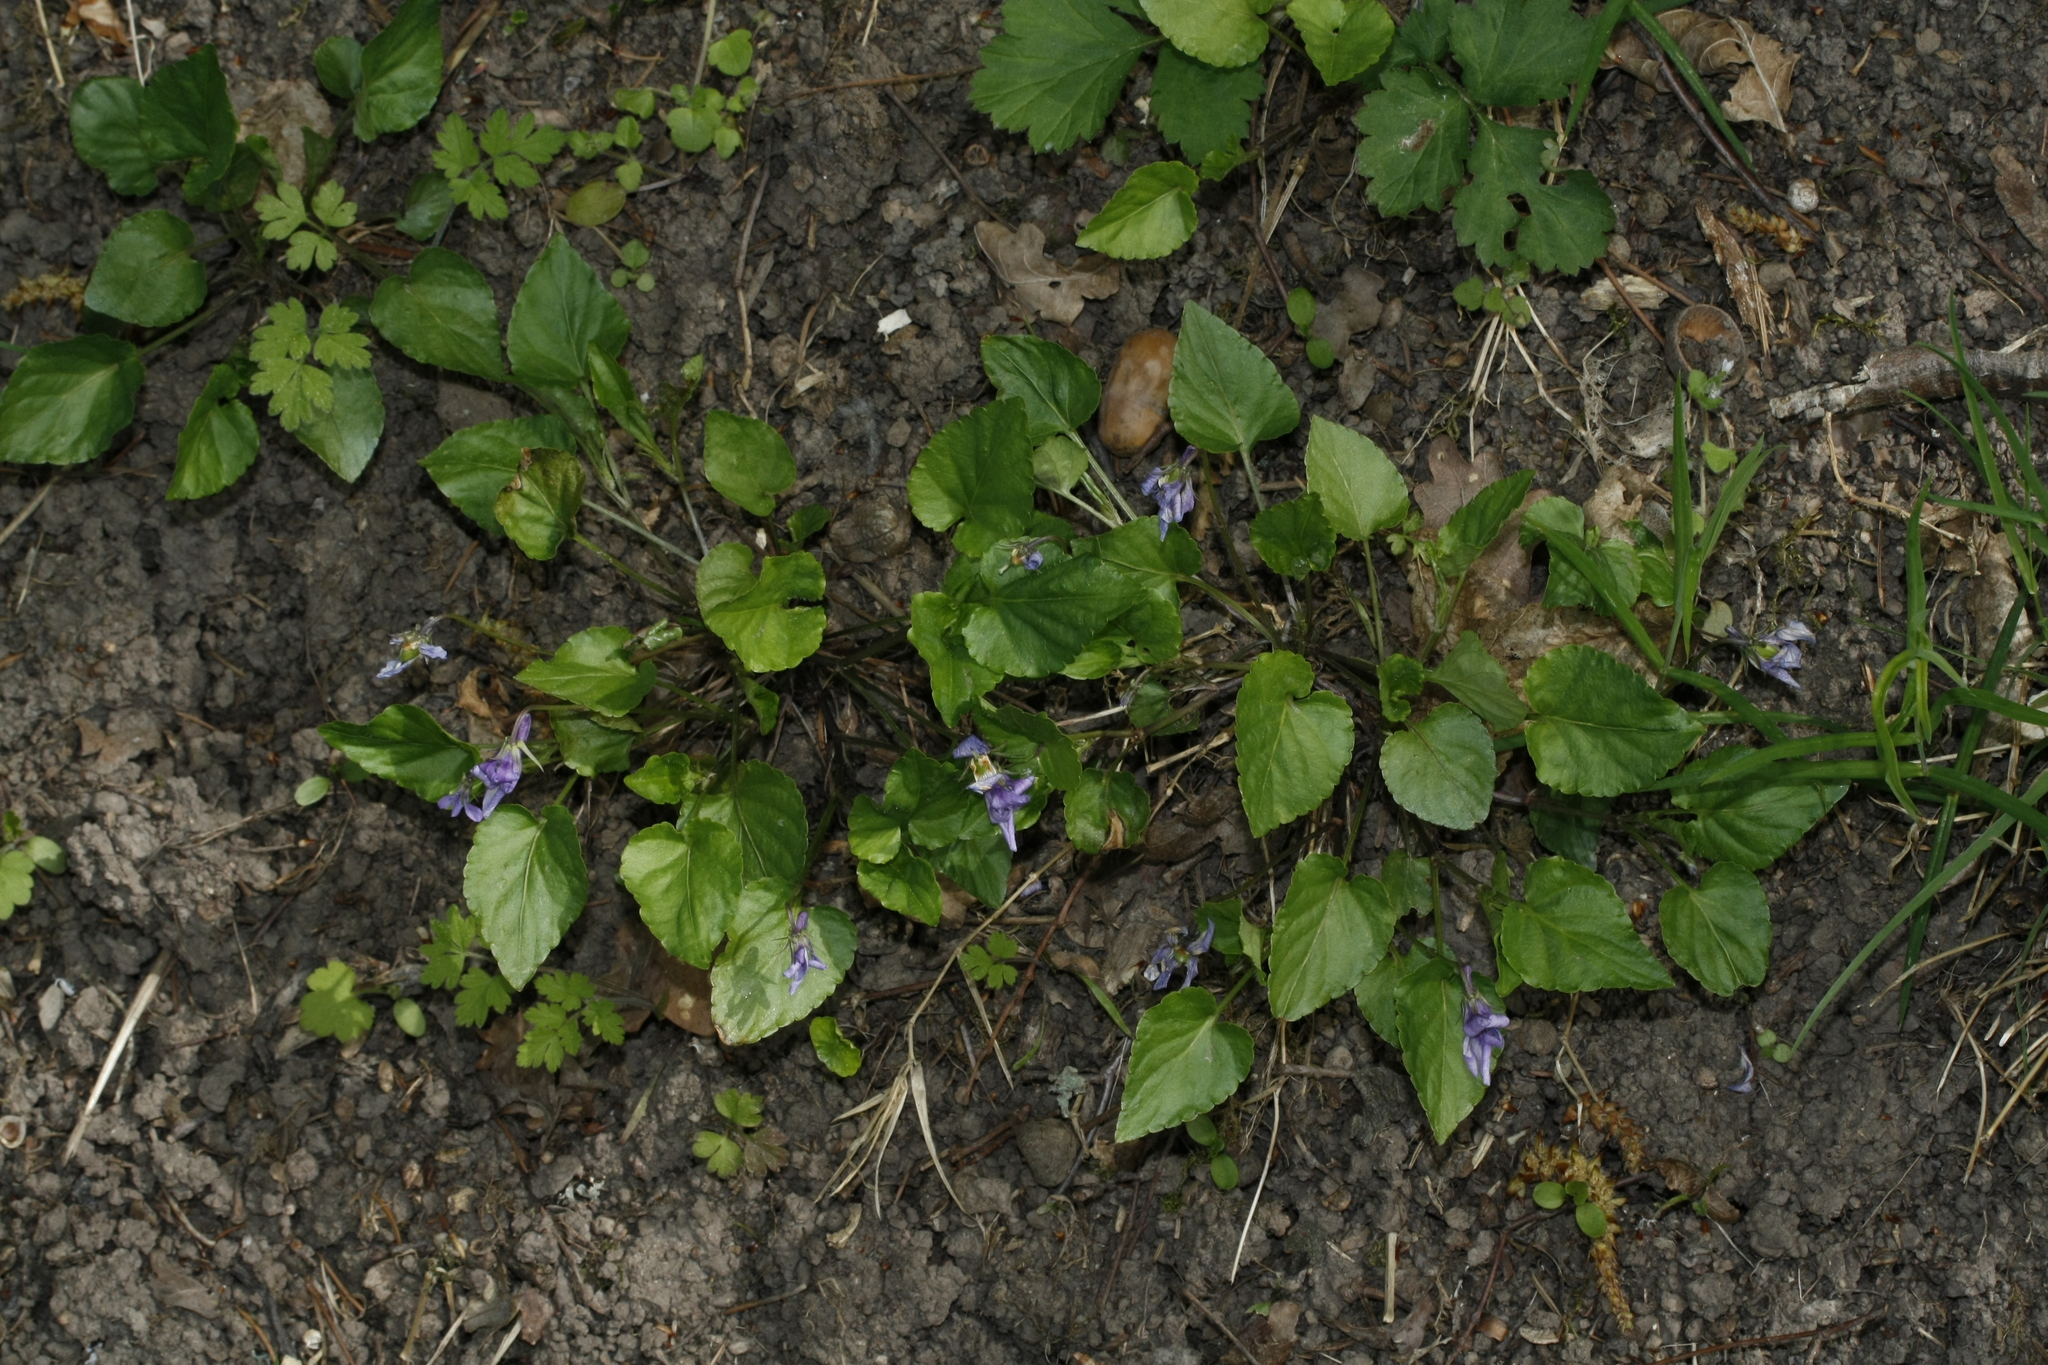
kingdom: Plantae
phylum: Tracheophyta
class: Magnoliopsida
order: Malpighiales
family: Violaceae
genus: Viola
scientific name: Viola reichenbachiana
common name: Early dog-violet
